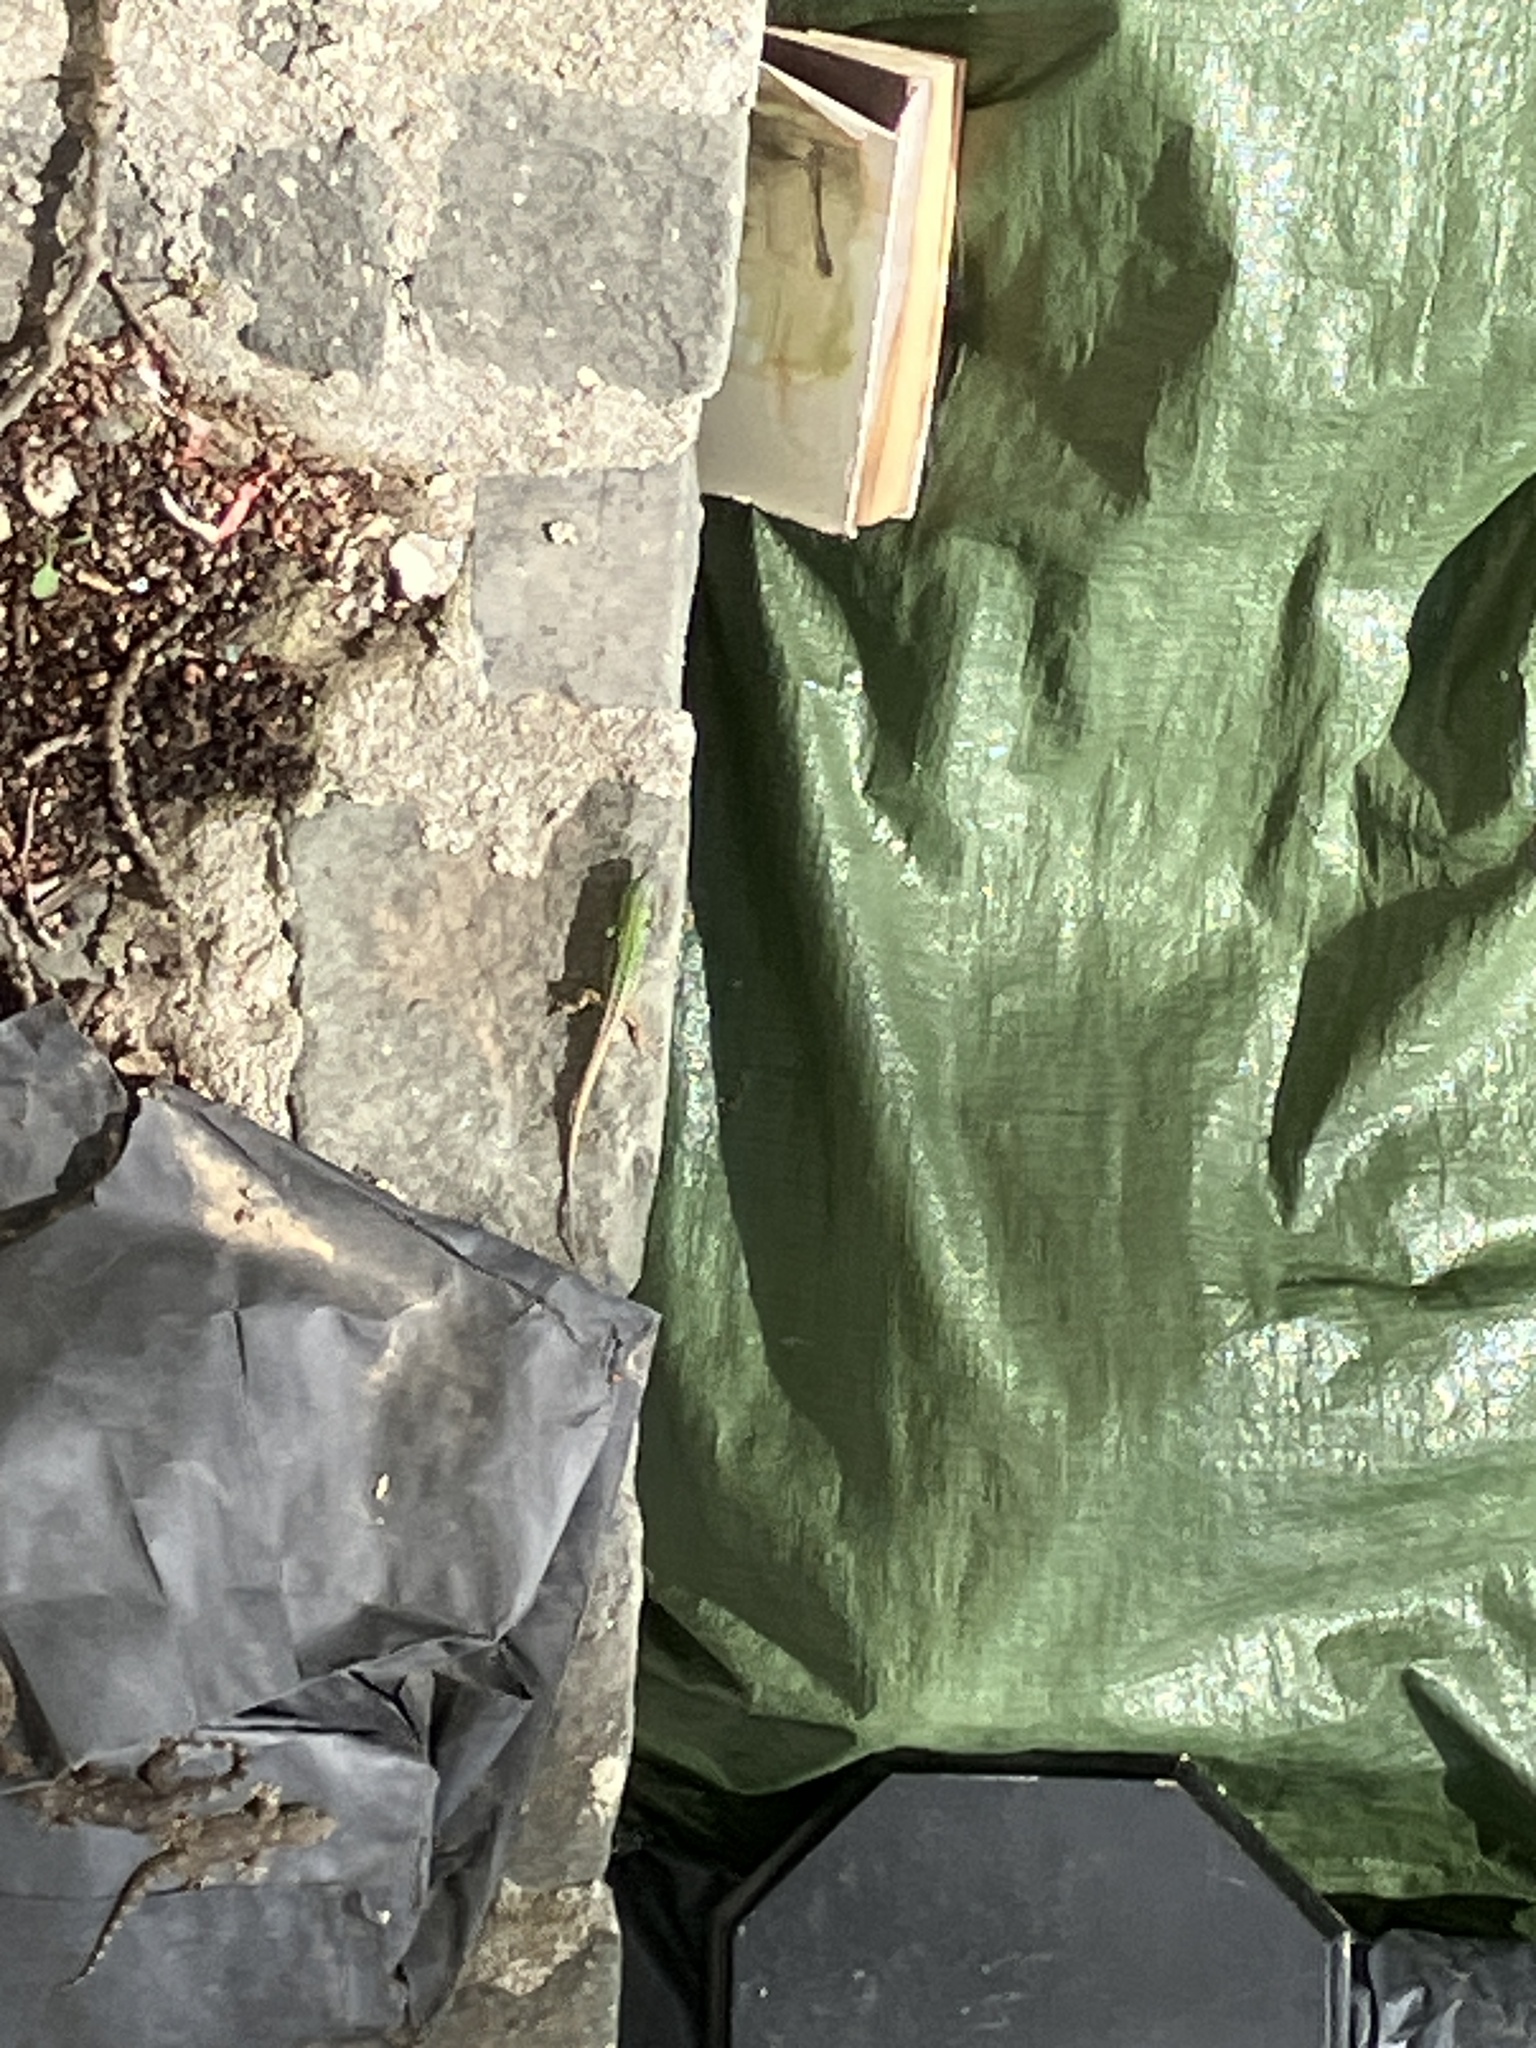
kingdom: Animalia
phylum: Chordata
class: Squamata
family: Lacertidae
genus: Podarcis
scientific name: Podarcis siculus
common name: Italian wall lizard
